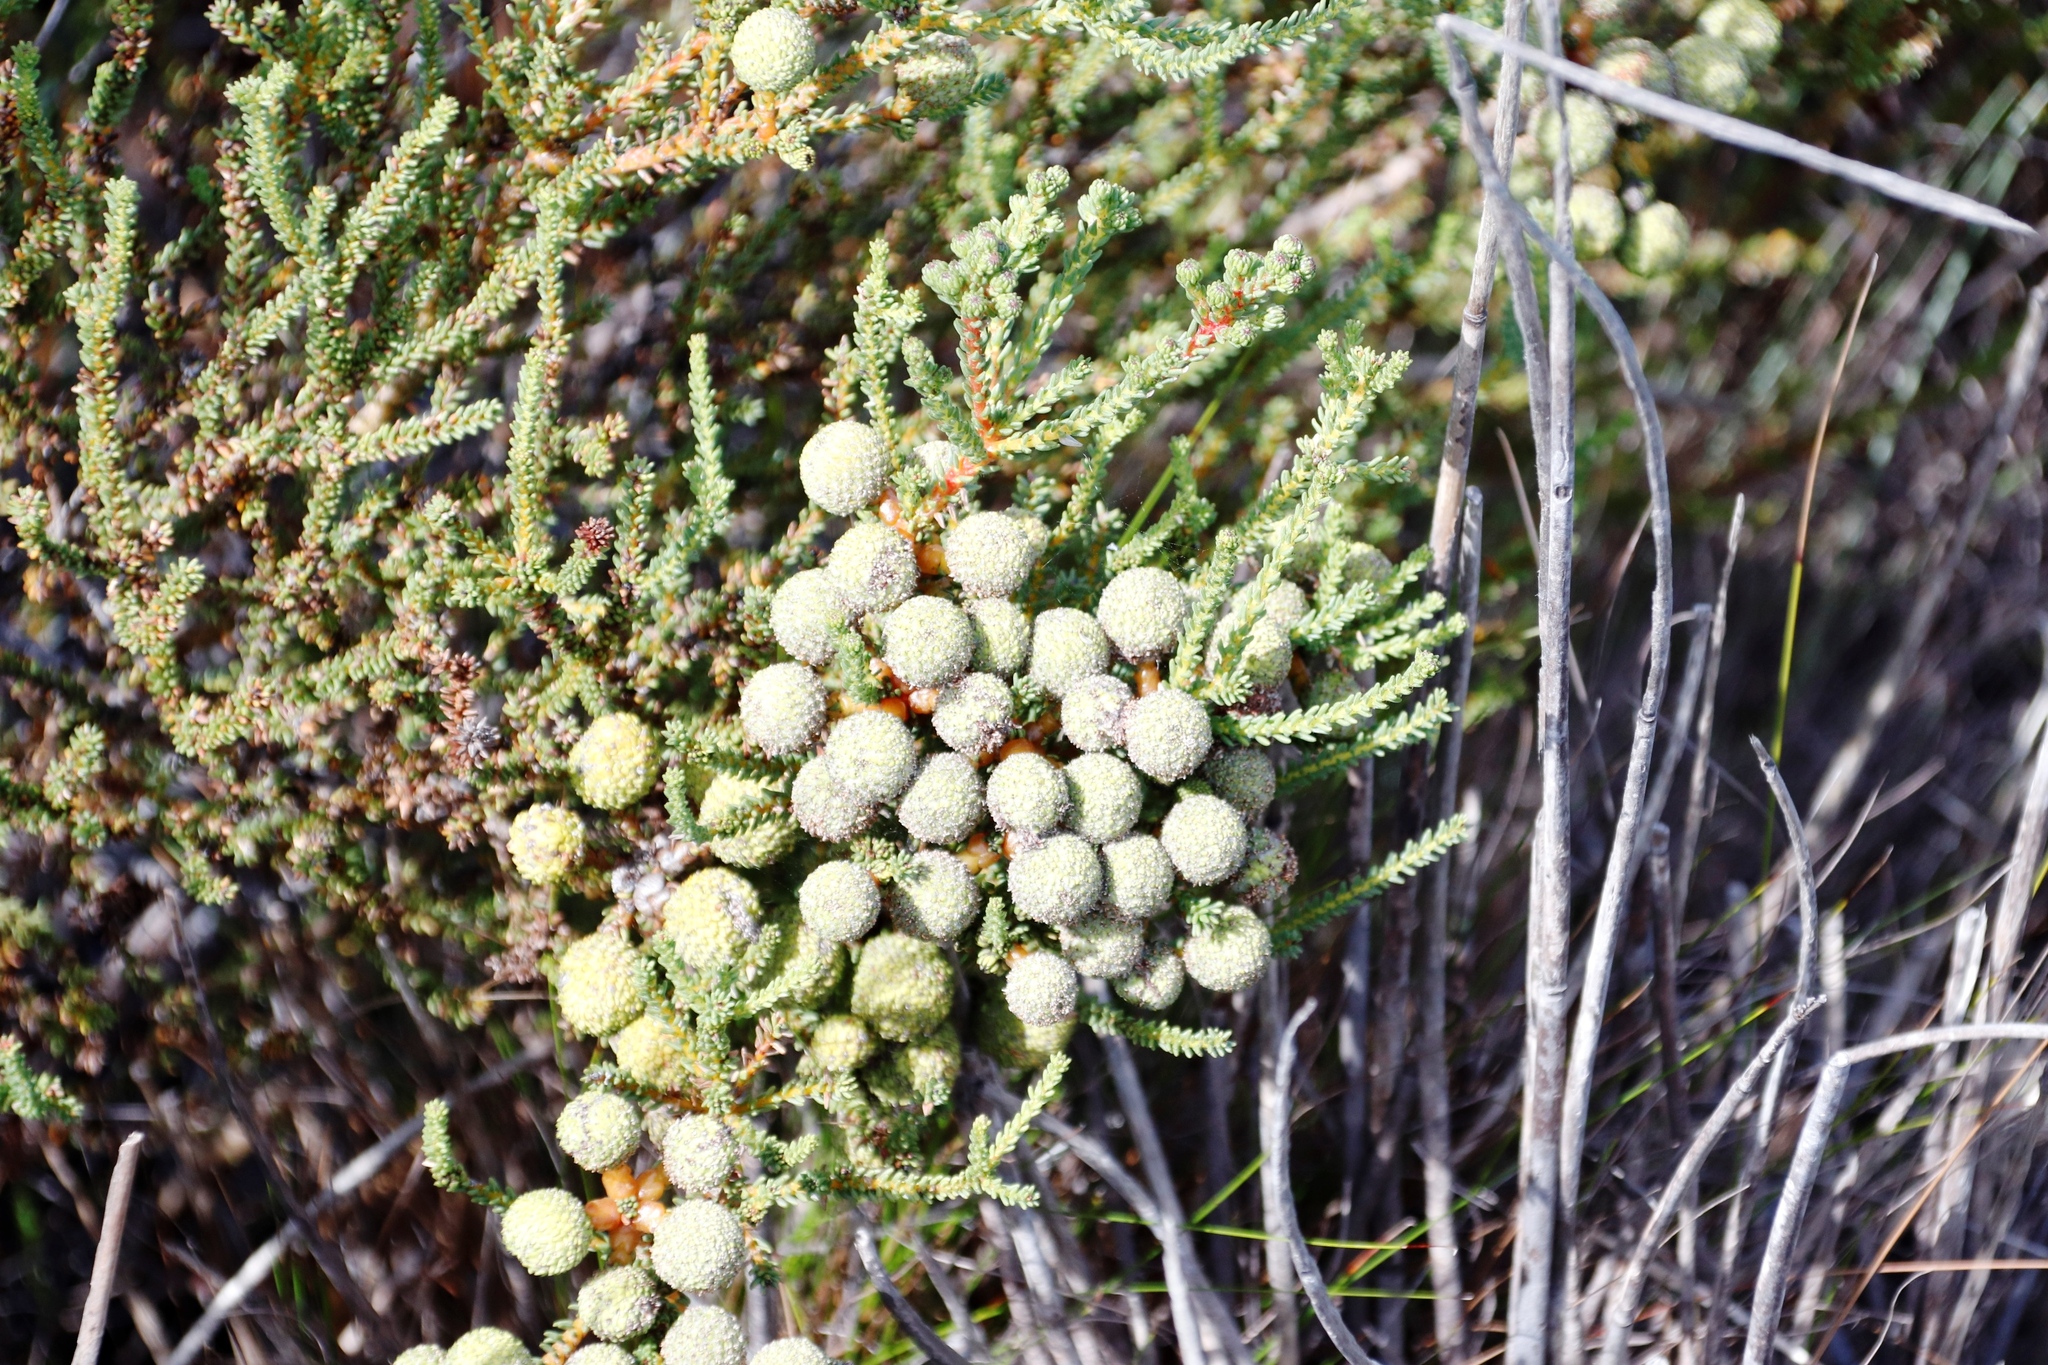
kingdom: Plantae
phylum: Tracheophyta
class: Magnoliopsida
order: Bruniales
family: Bruniaceae
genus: Berzelia
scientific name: Berzelia abrotanoides
